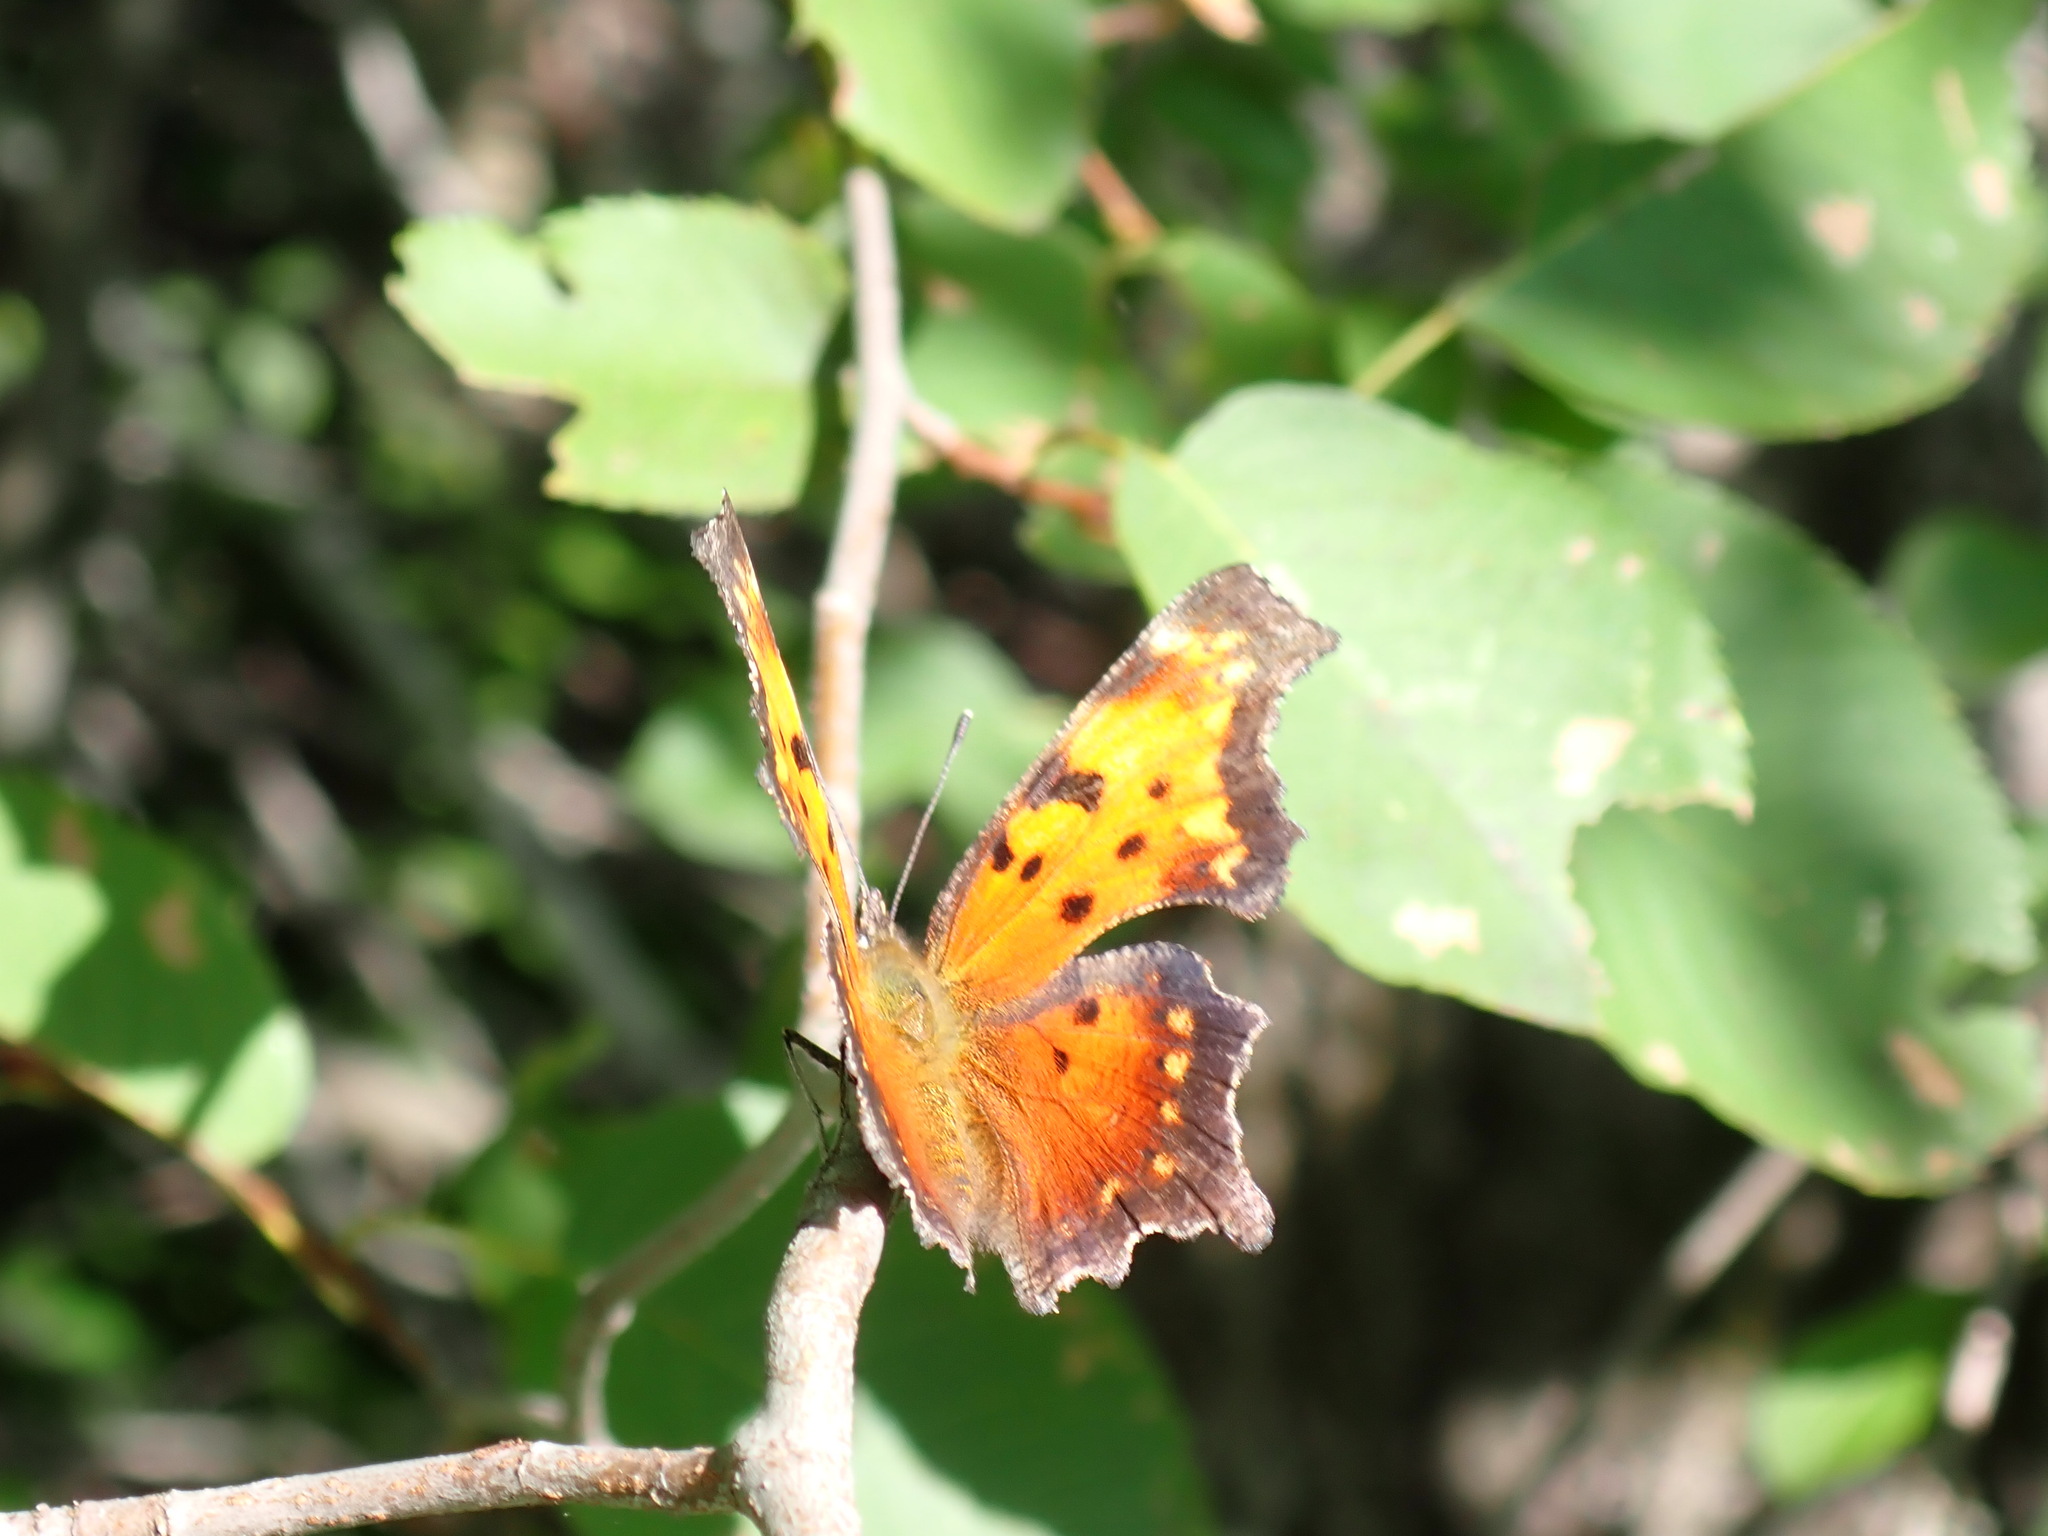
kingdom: Animalia
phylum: Arthropoda
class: Insecta
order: Lepidoptera
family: Nymphalidae
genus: Polygonia
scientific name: Polygonia progne
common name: Gray comma
